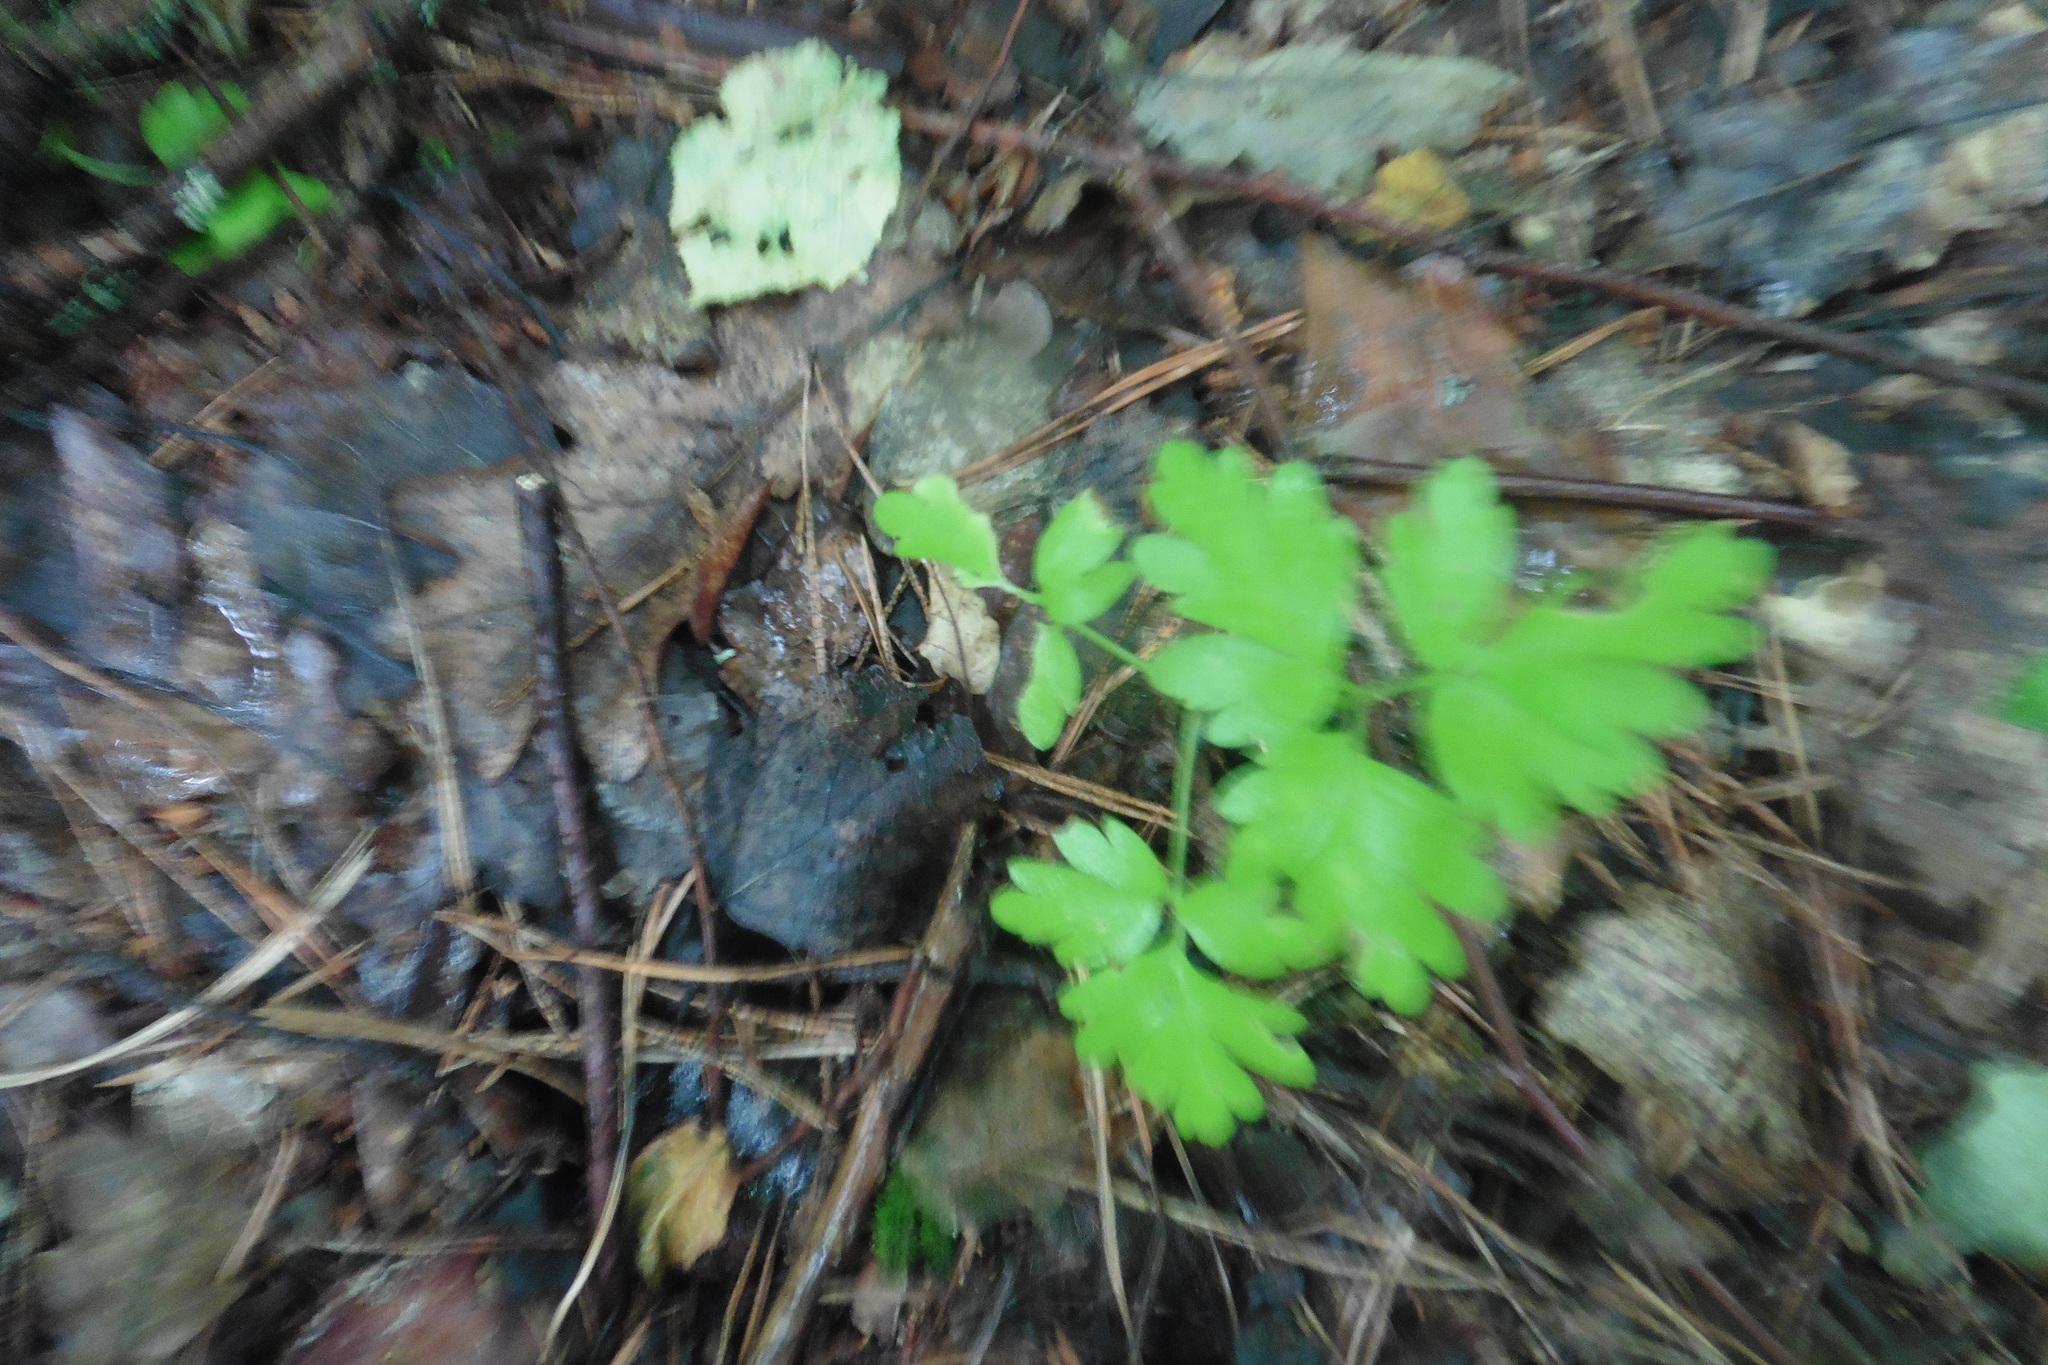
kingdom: Plantae
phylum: Tracheophyta
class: Magnoliopsida
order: Dipsacales
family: Viburnaceae
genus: Adoxa
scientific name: Adoxa moschatellina
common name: Moschatel
